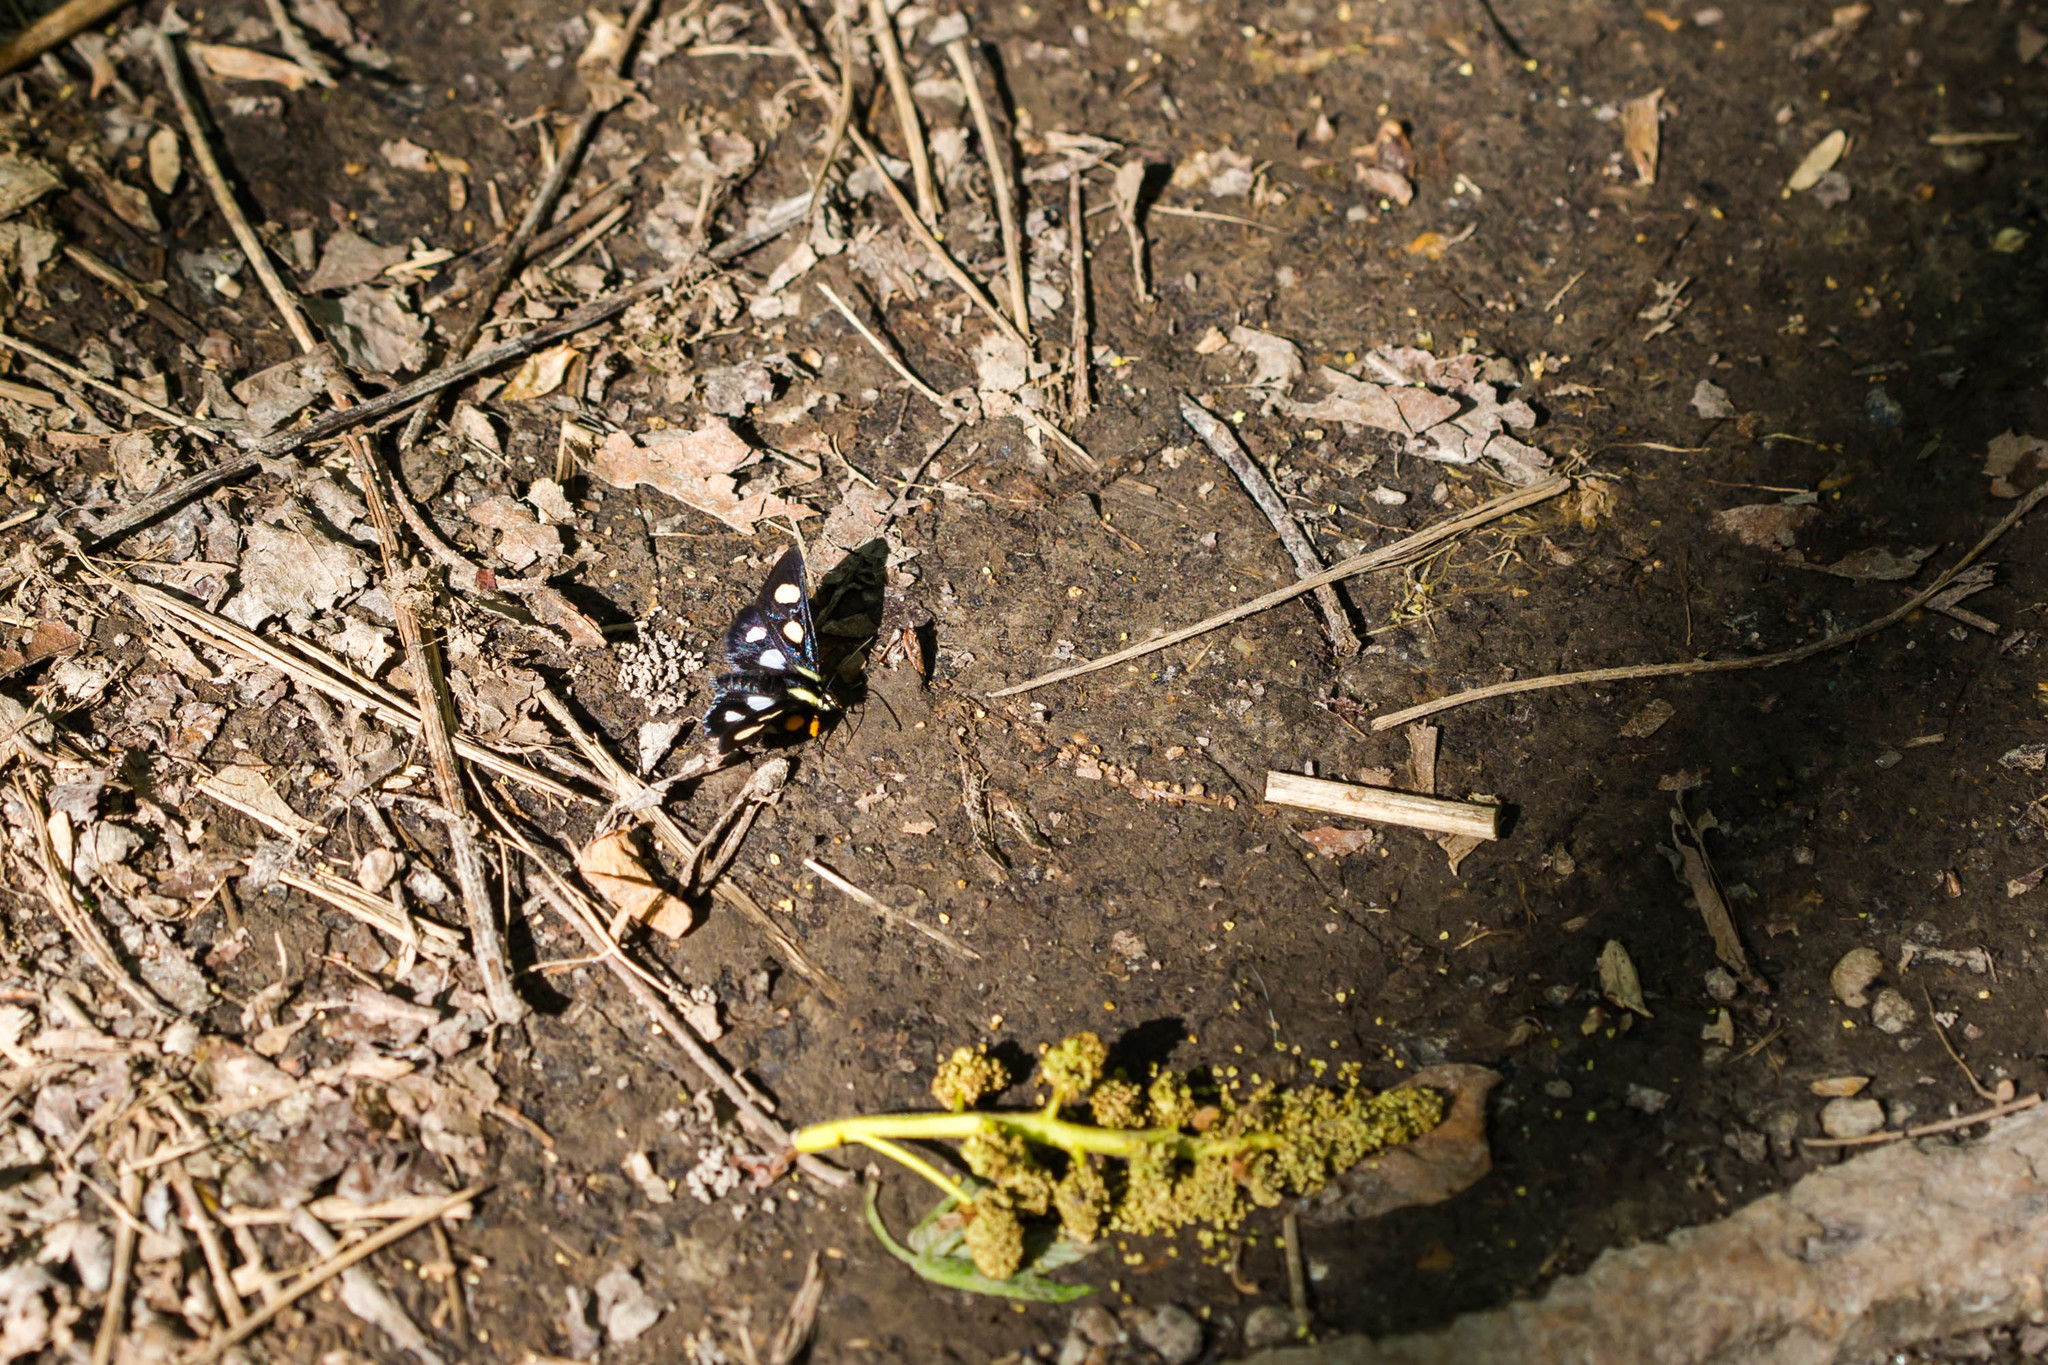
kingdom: Animalia
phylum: Arthropoda
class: Insecta
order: Lepidoptera
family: Noctuidae
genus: Alypia
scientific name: Alypia octomaculata
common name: Eight-spotted forester
